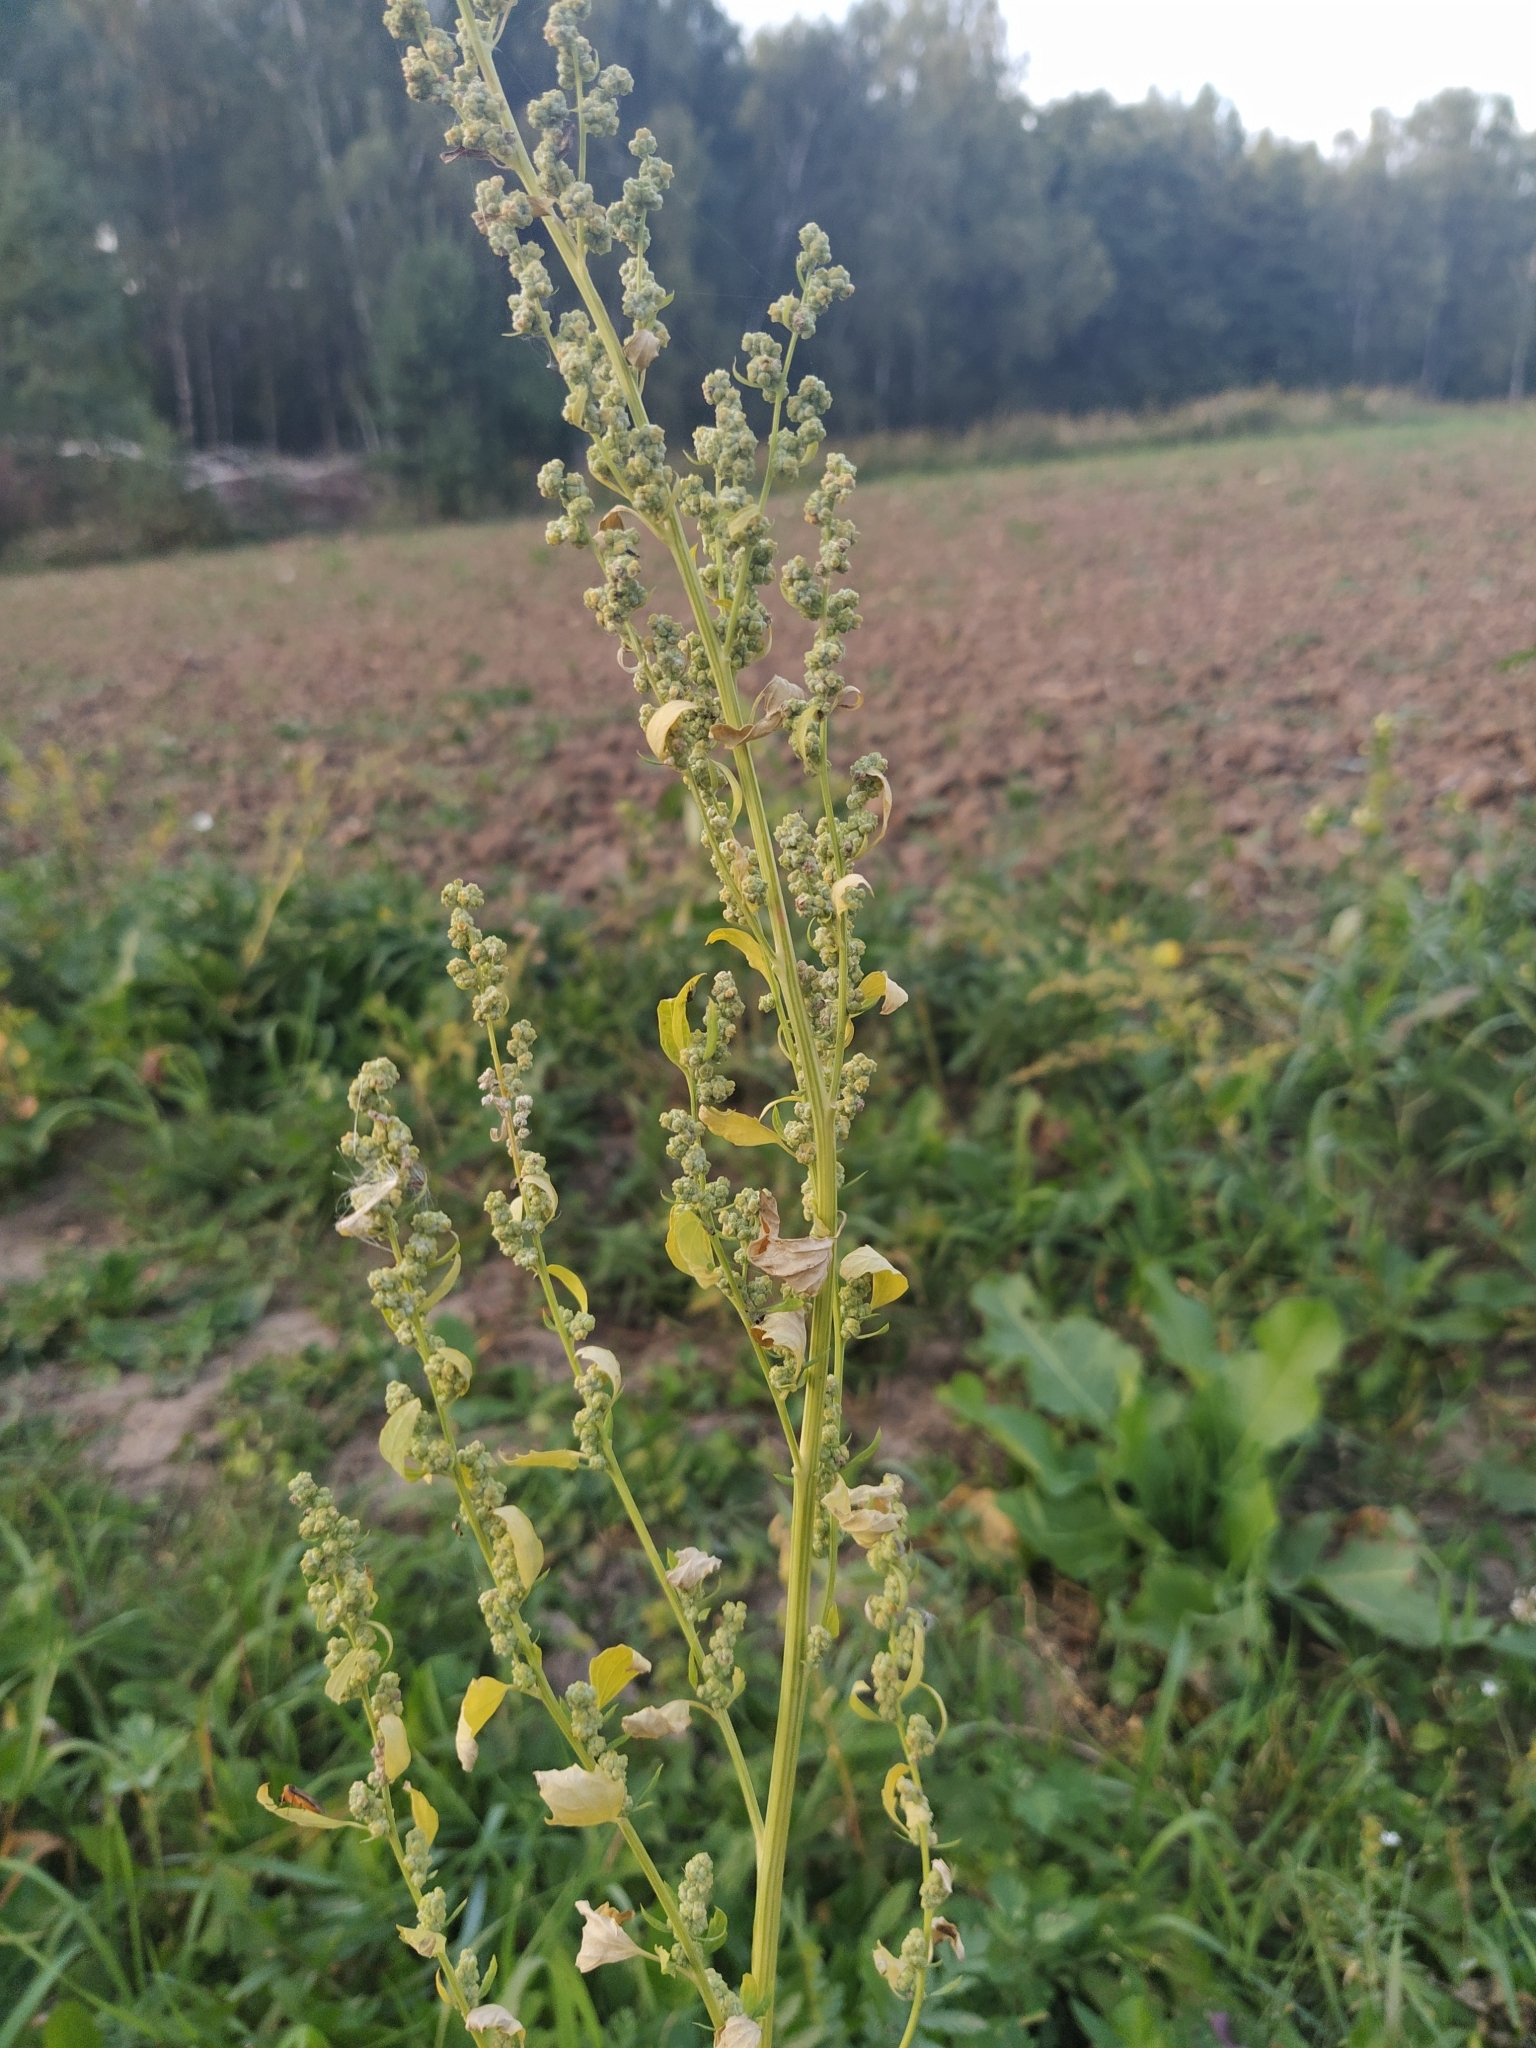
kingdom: Plantae
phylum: Tracheophyta
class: Magnoliopsida
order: Caryophyllales
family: Amaranthaceae
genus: Chenopodium
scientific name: Chenopodium album
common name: Fat-hen
